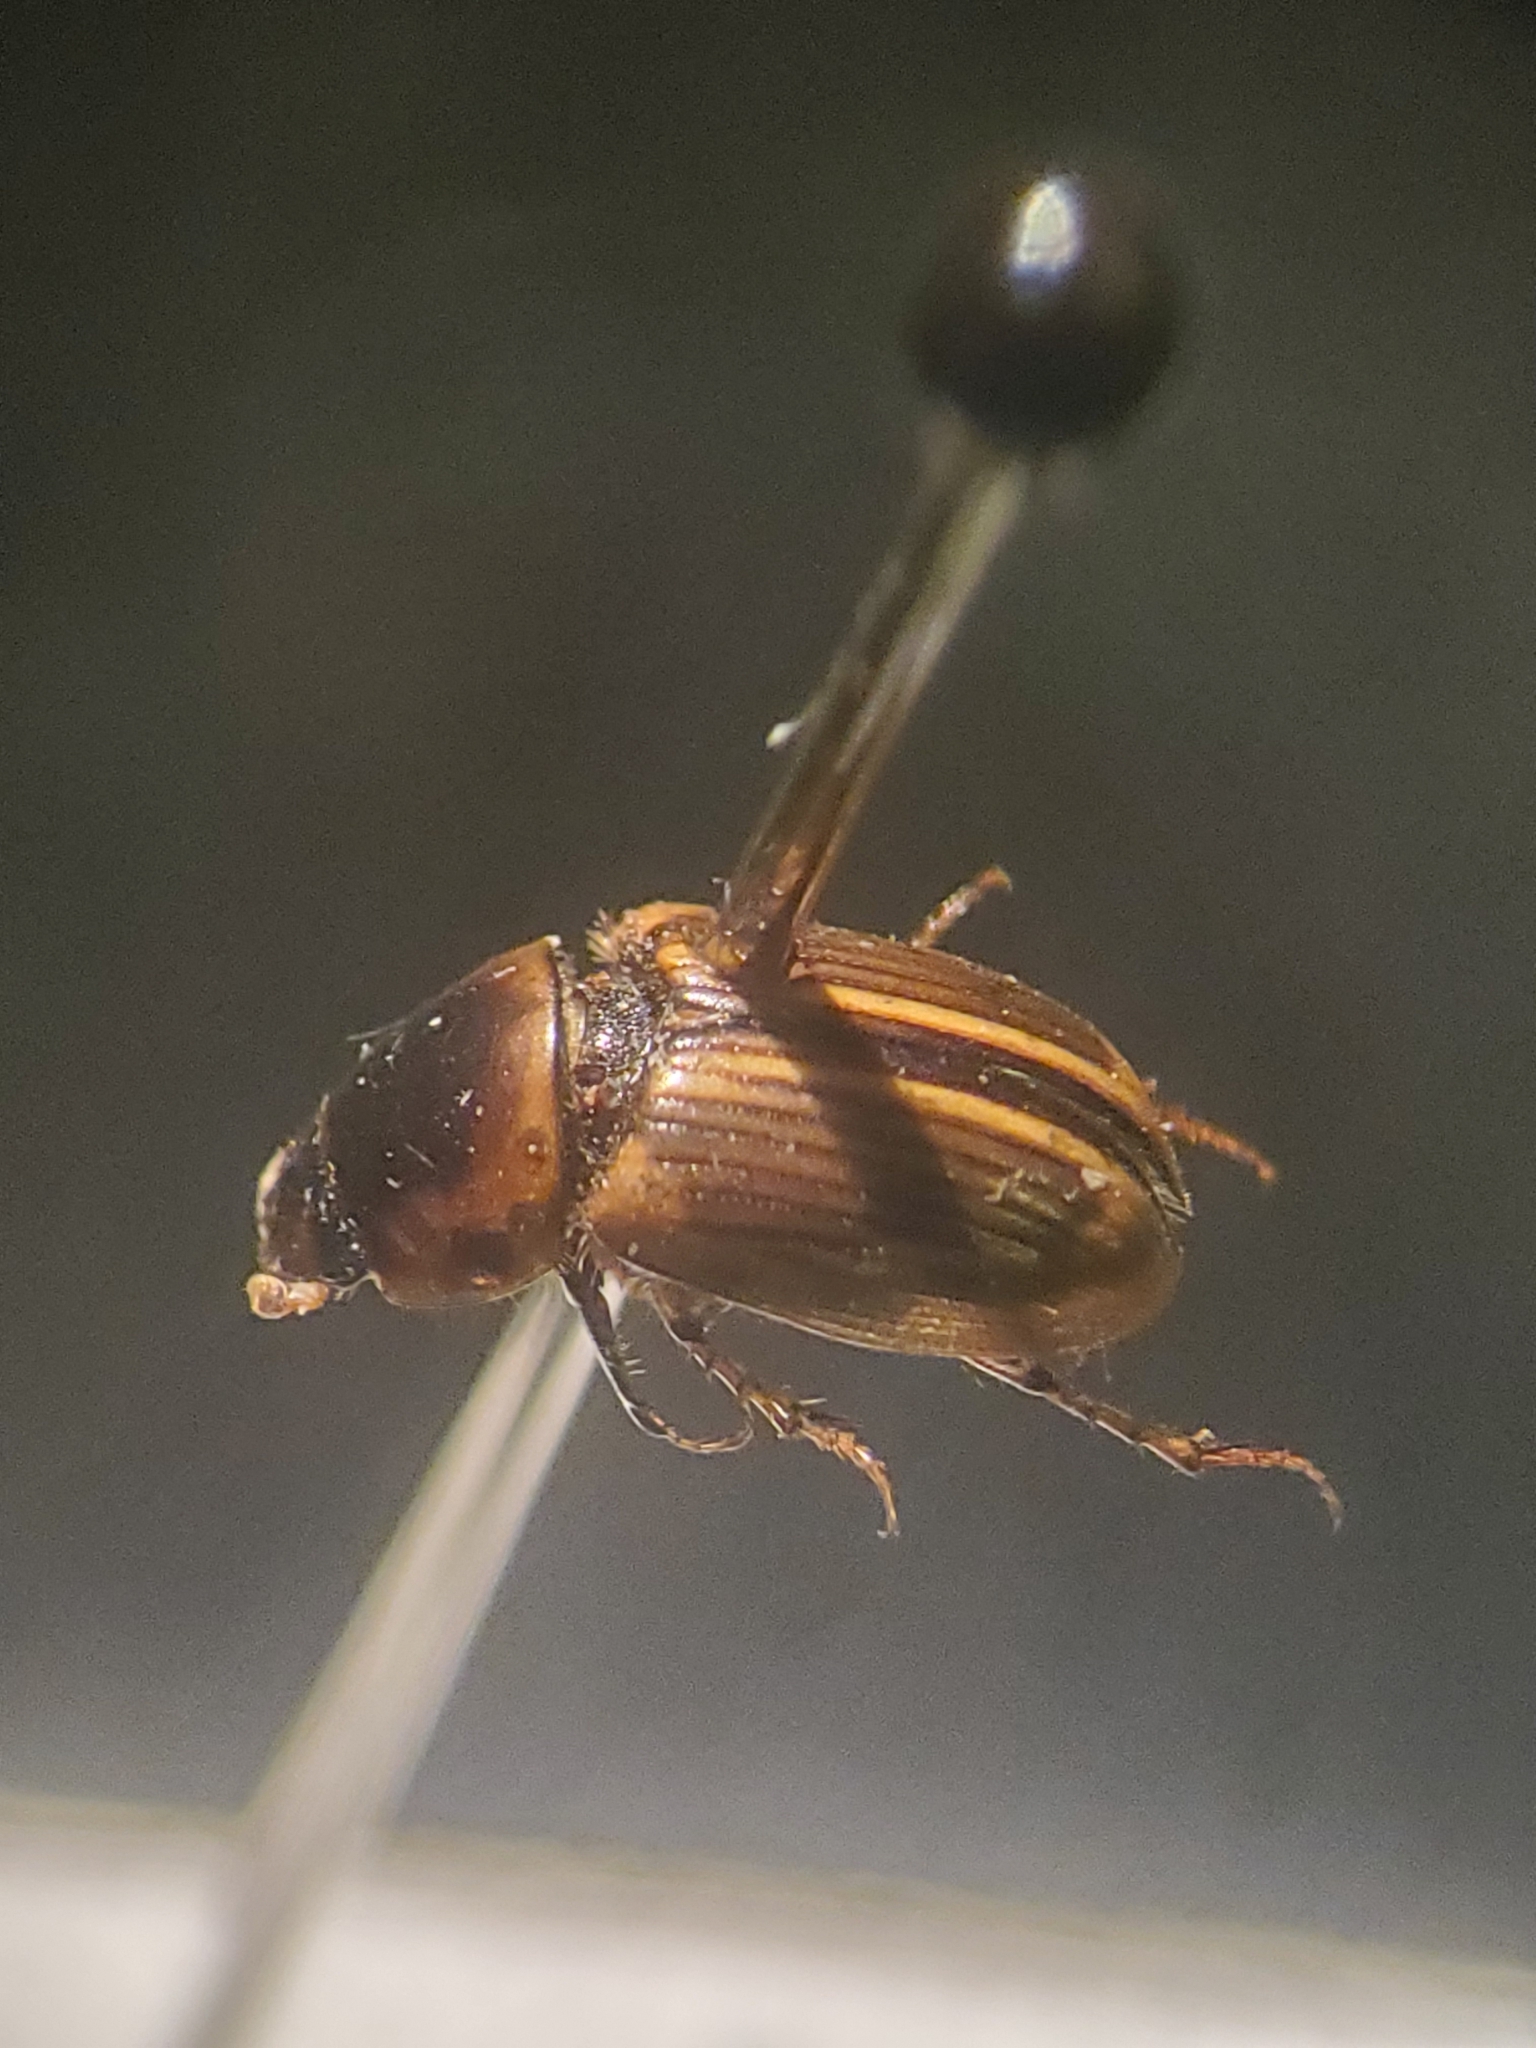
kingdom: Animalia
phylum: Arthropoda
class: Insecta
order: Coleoptera
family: Scarabaeidae
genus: Labarrus
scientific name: Labarrus lividus
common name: Scarab beetle
